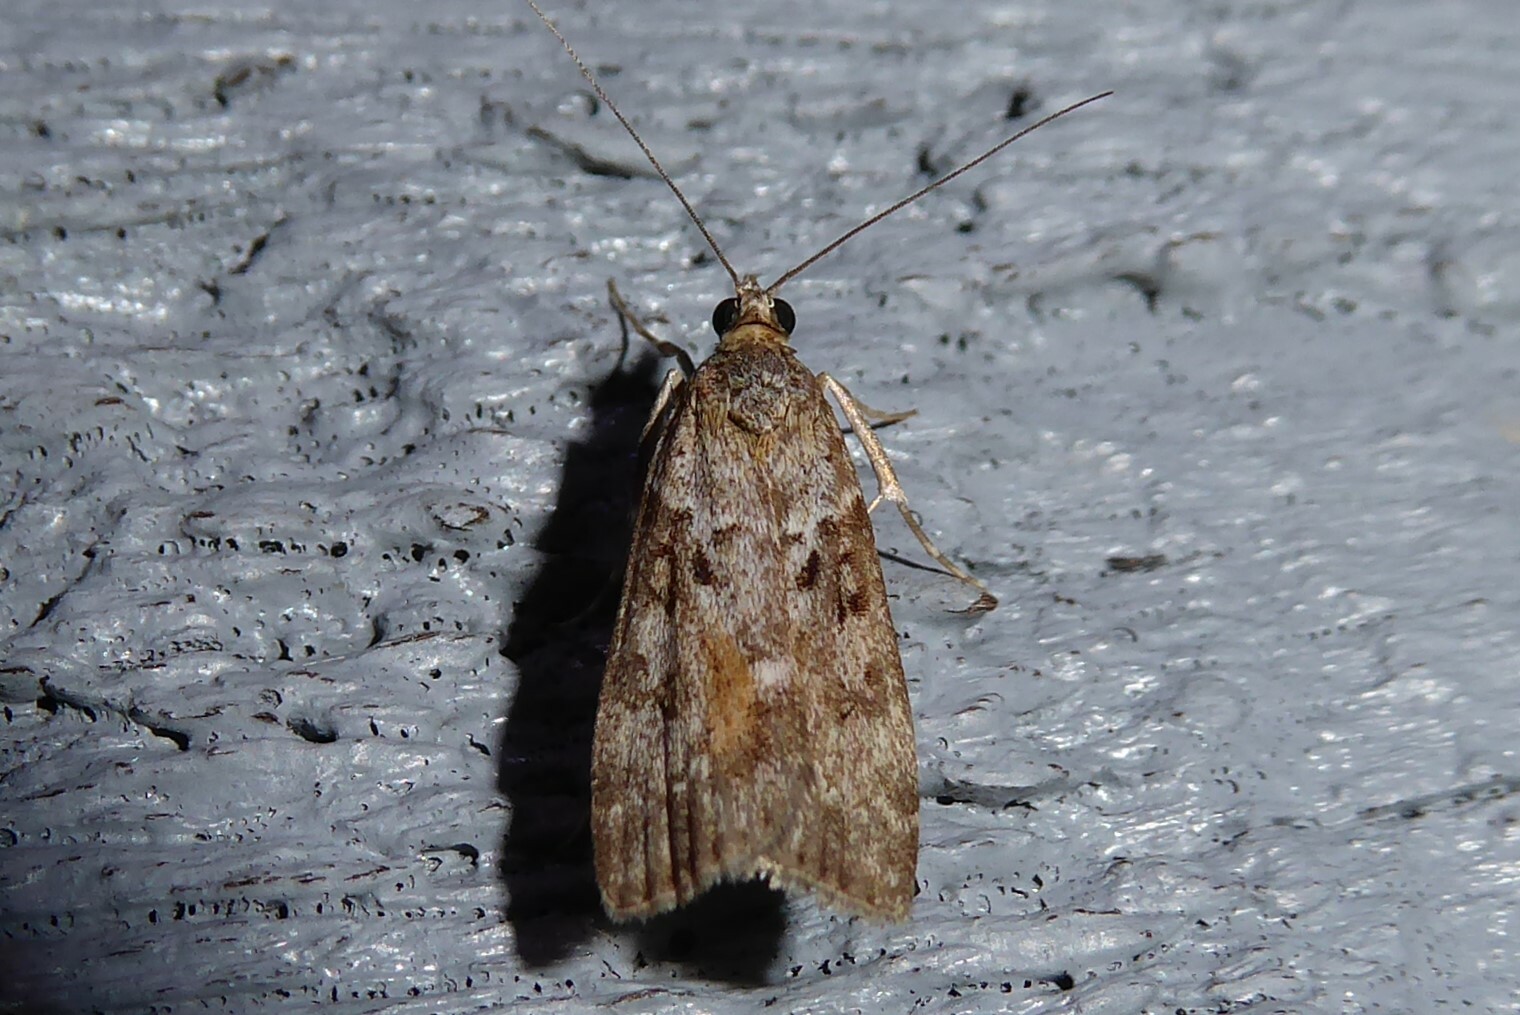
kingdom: Animalia
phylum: Arthropoda
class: Insecta
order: Lepidoptera
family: Crambidae
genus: Eudonia
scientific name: Eudonia submarginalis
